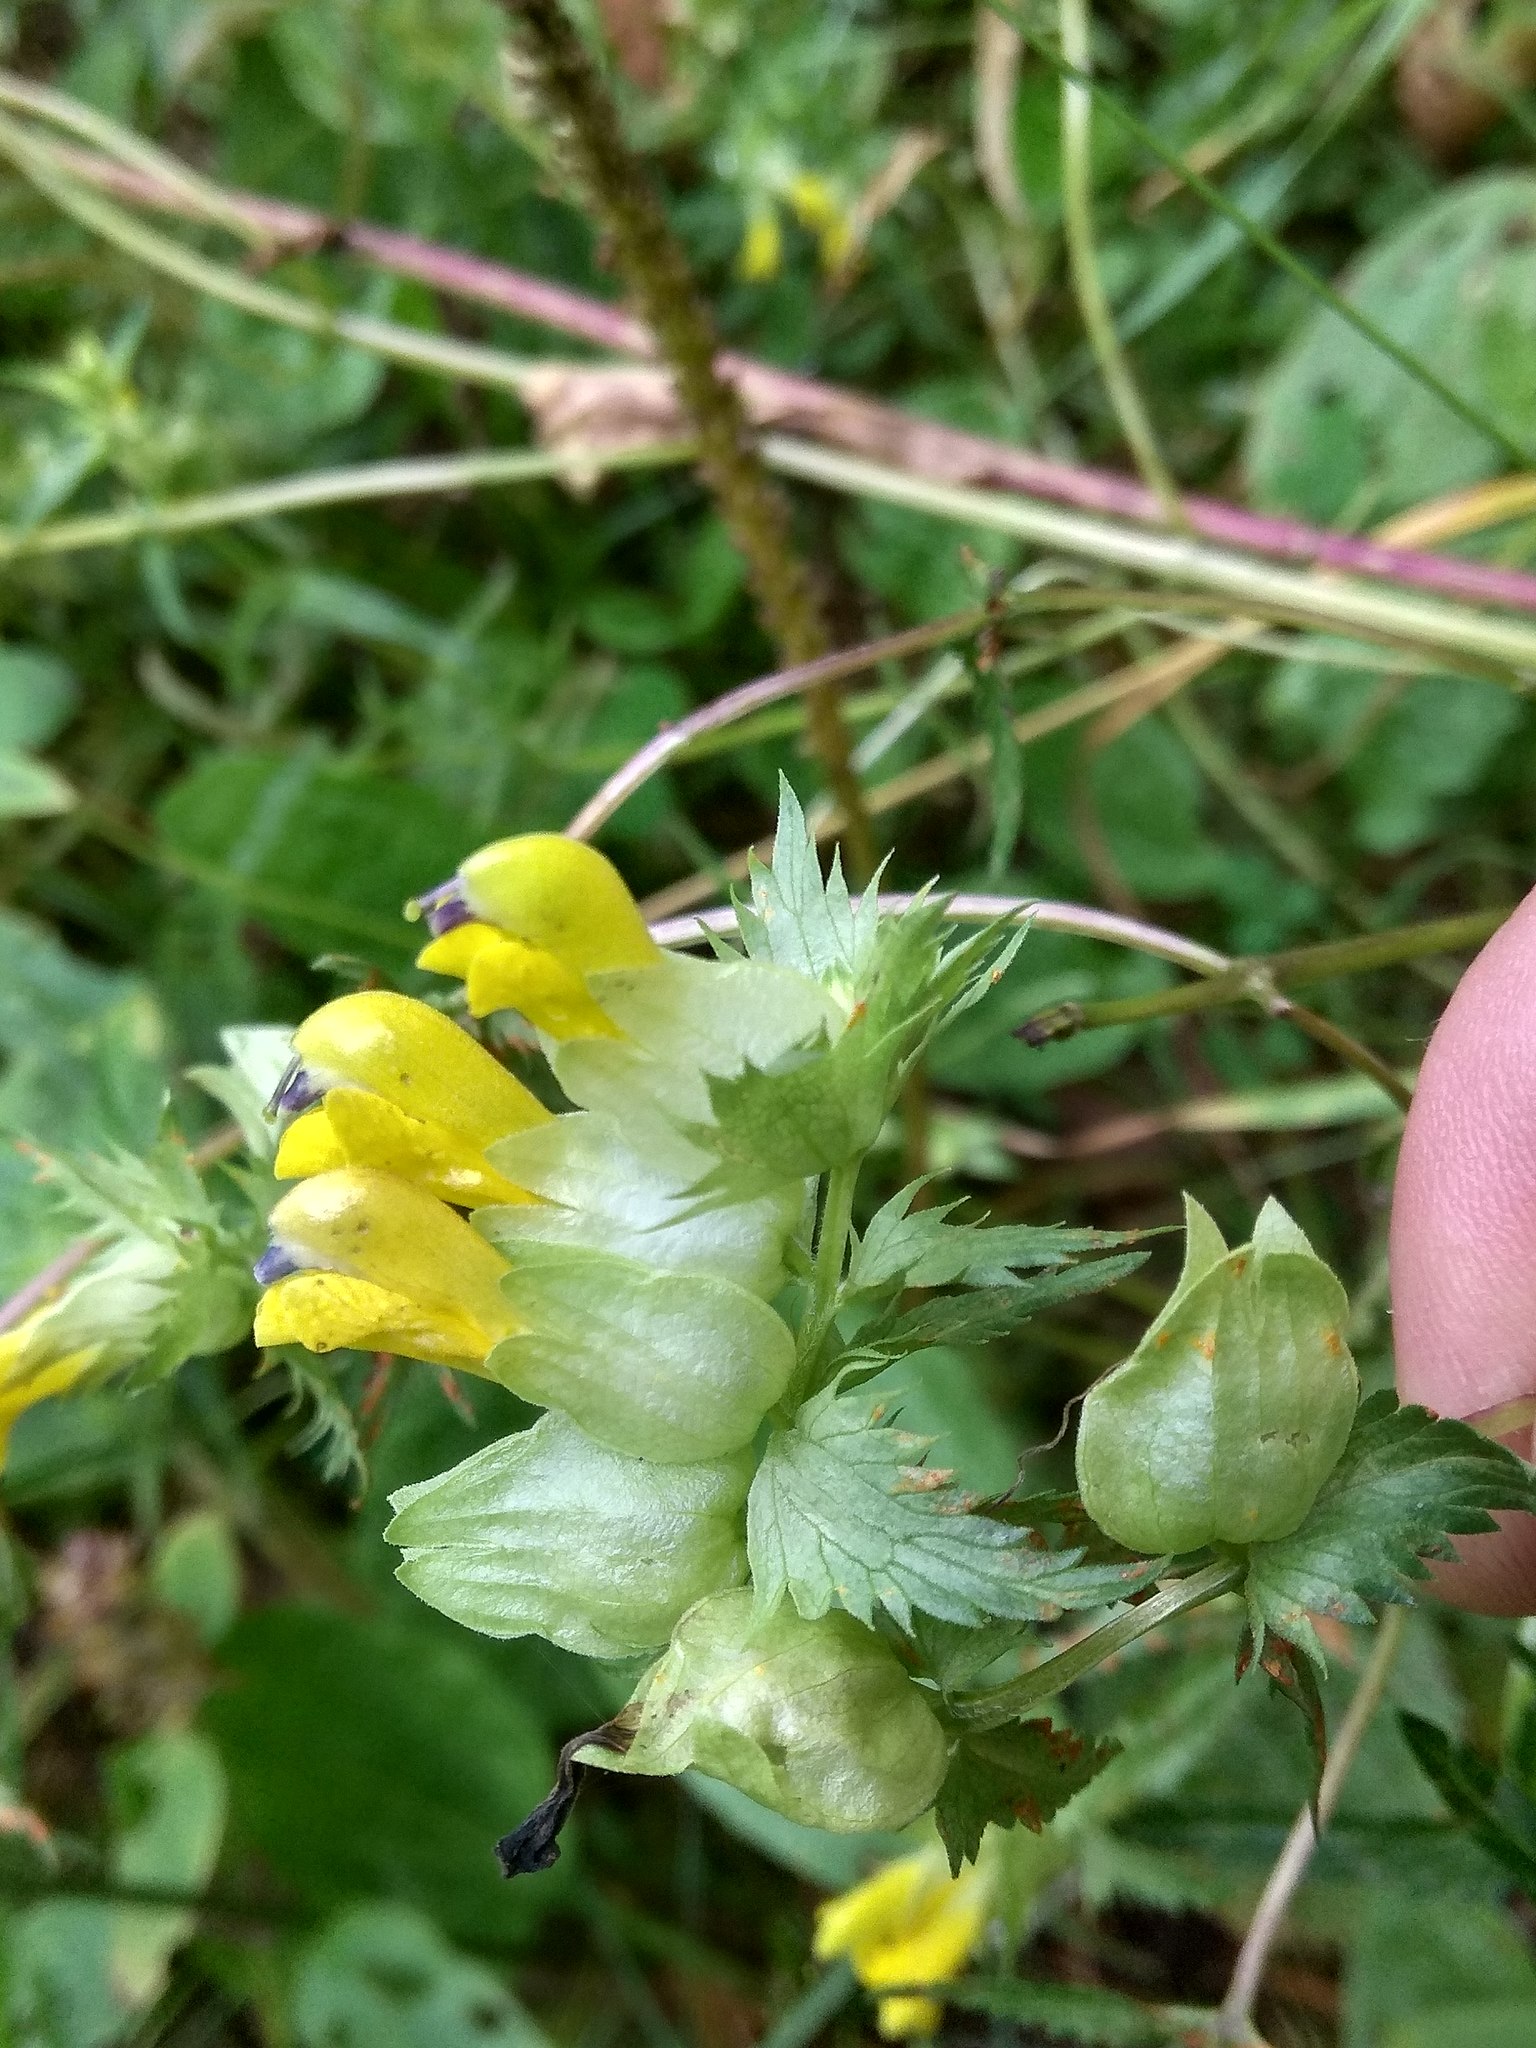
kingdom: Plantae
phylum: Tracheophyta
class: Magnoliopsida
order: Lamiales
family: Orobanchaceae
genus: Rhinanthus
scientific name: Rhinanthus serotinus
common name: Late-flowering yellow rattle
